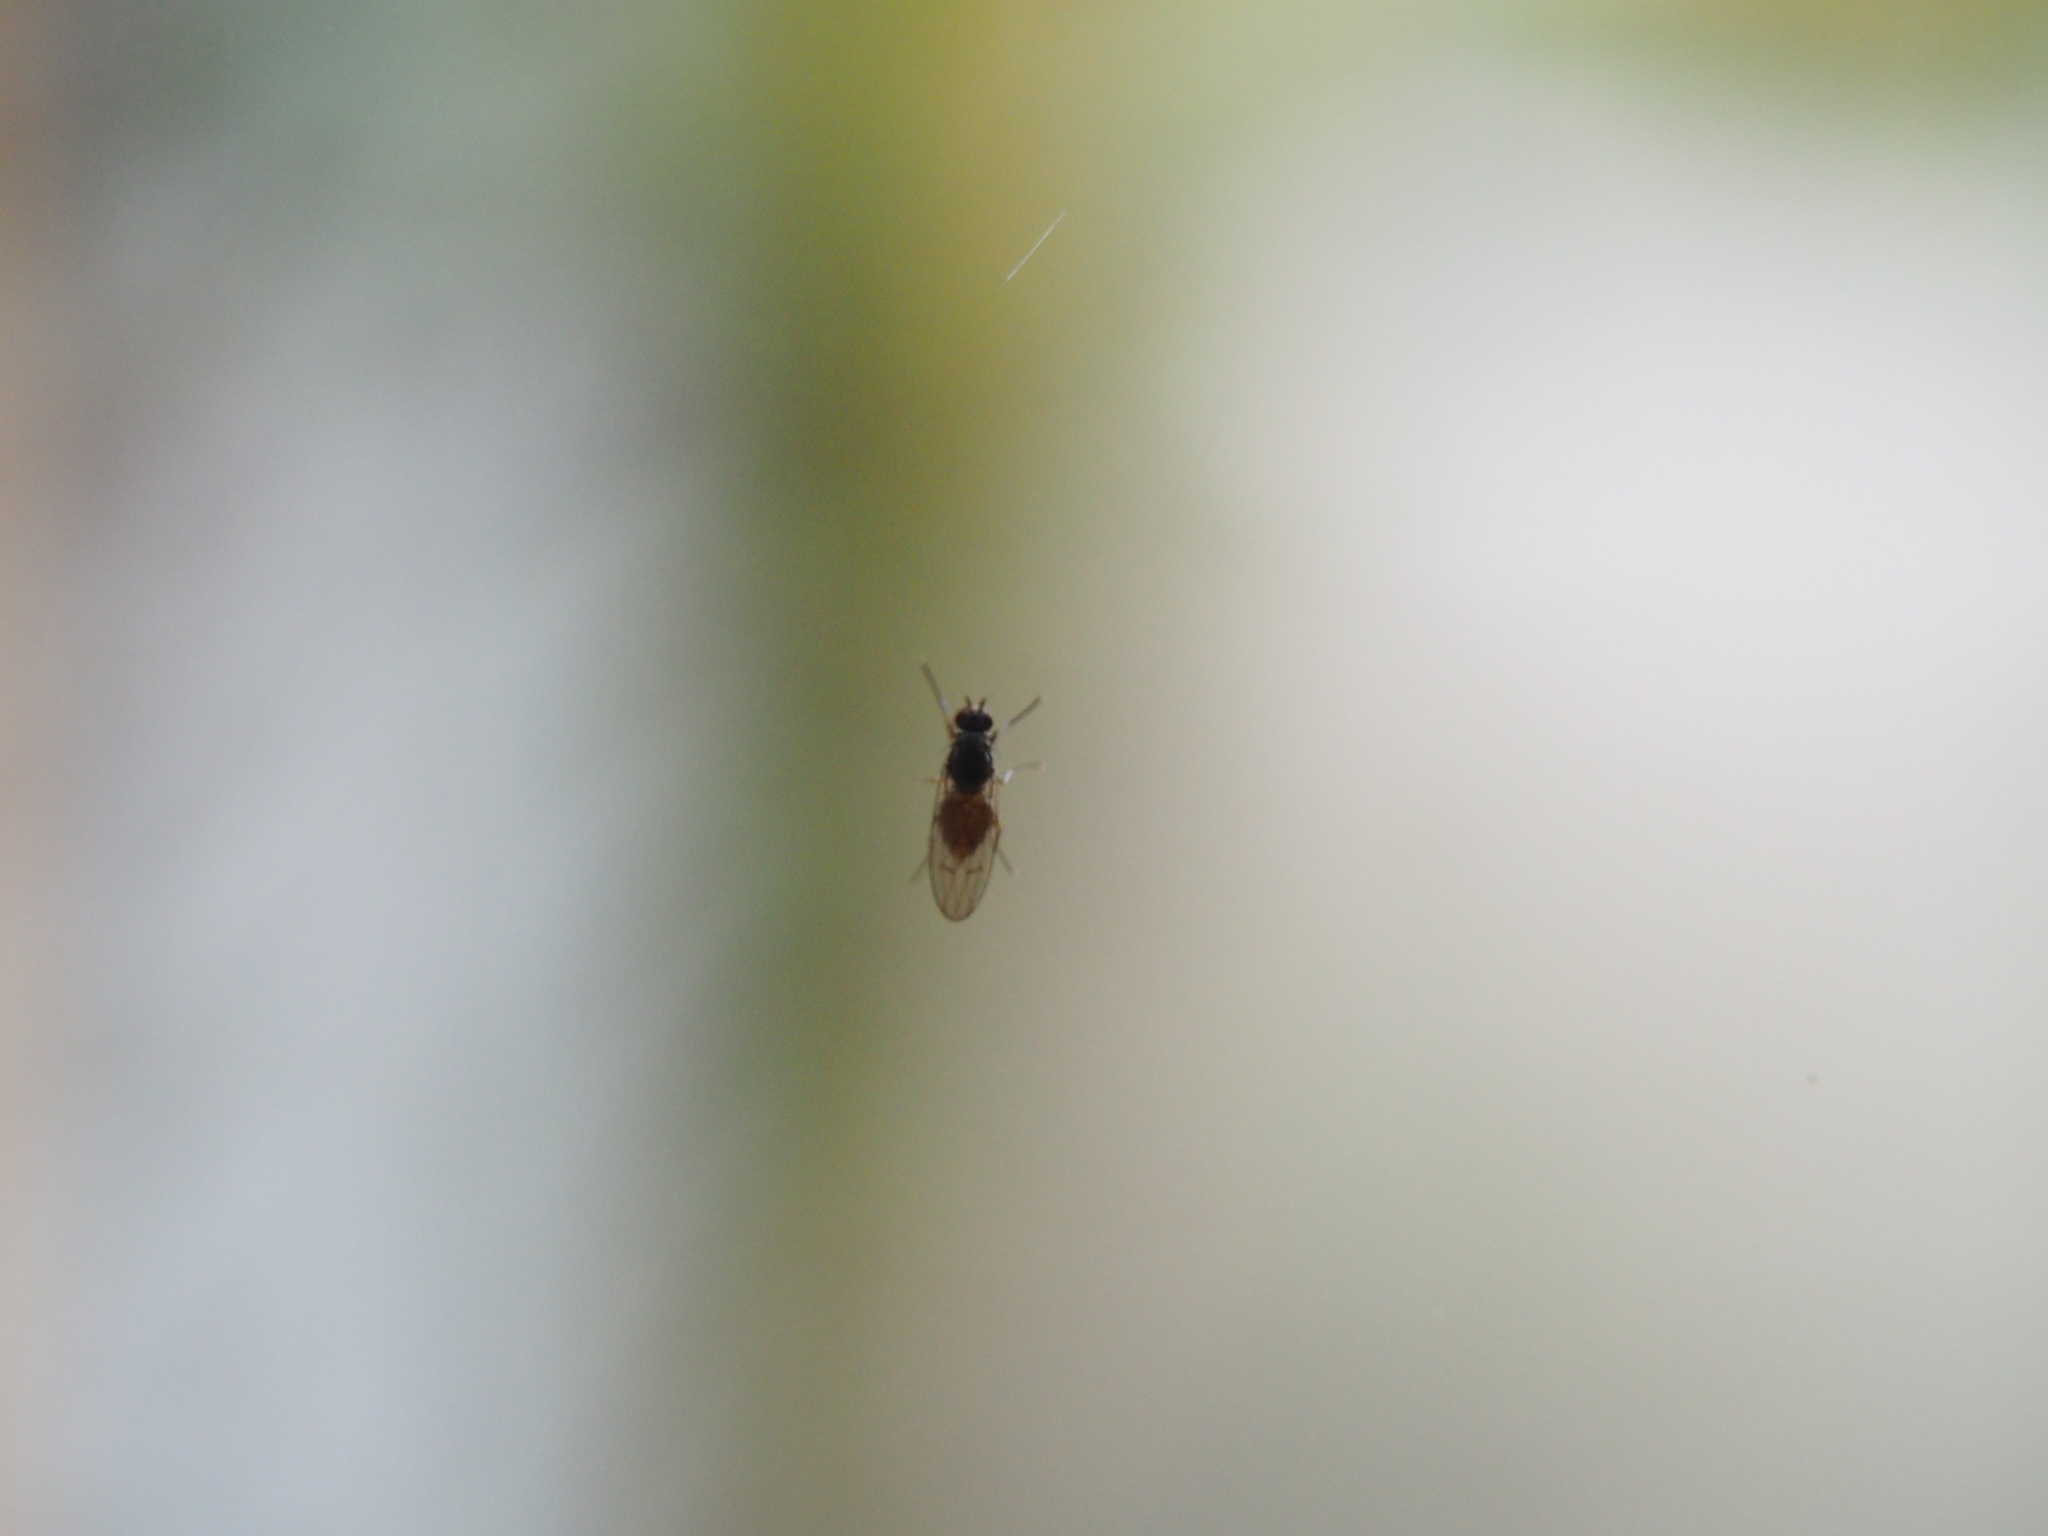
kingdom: Animalia
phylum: Arthropoda
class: Insecta
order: Diptera
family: Heleomyzidae
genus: Tephrochlamys
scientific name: Tephrochlamys tarsalis
